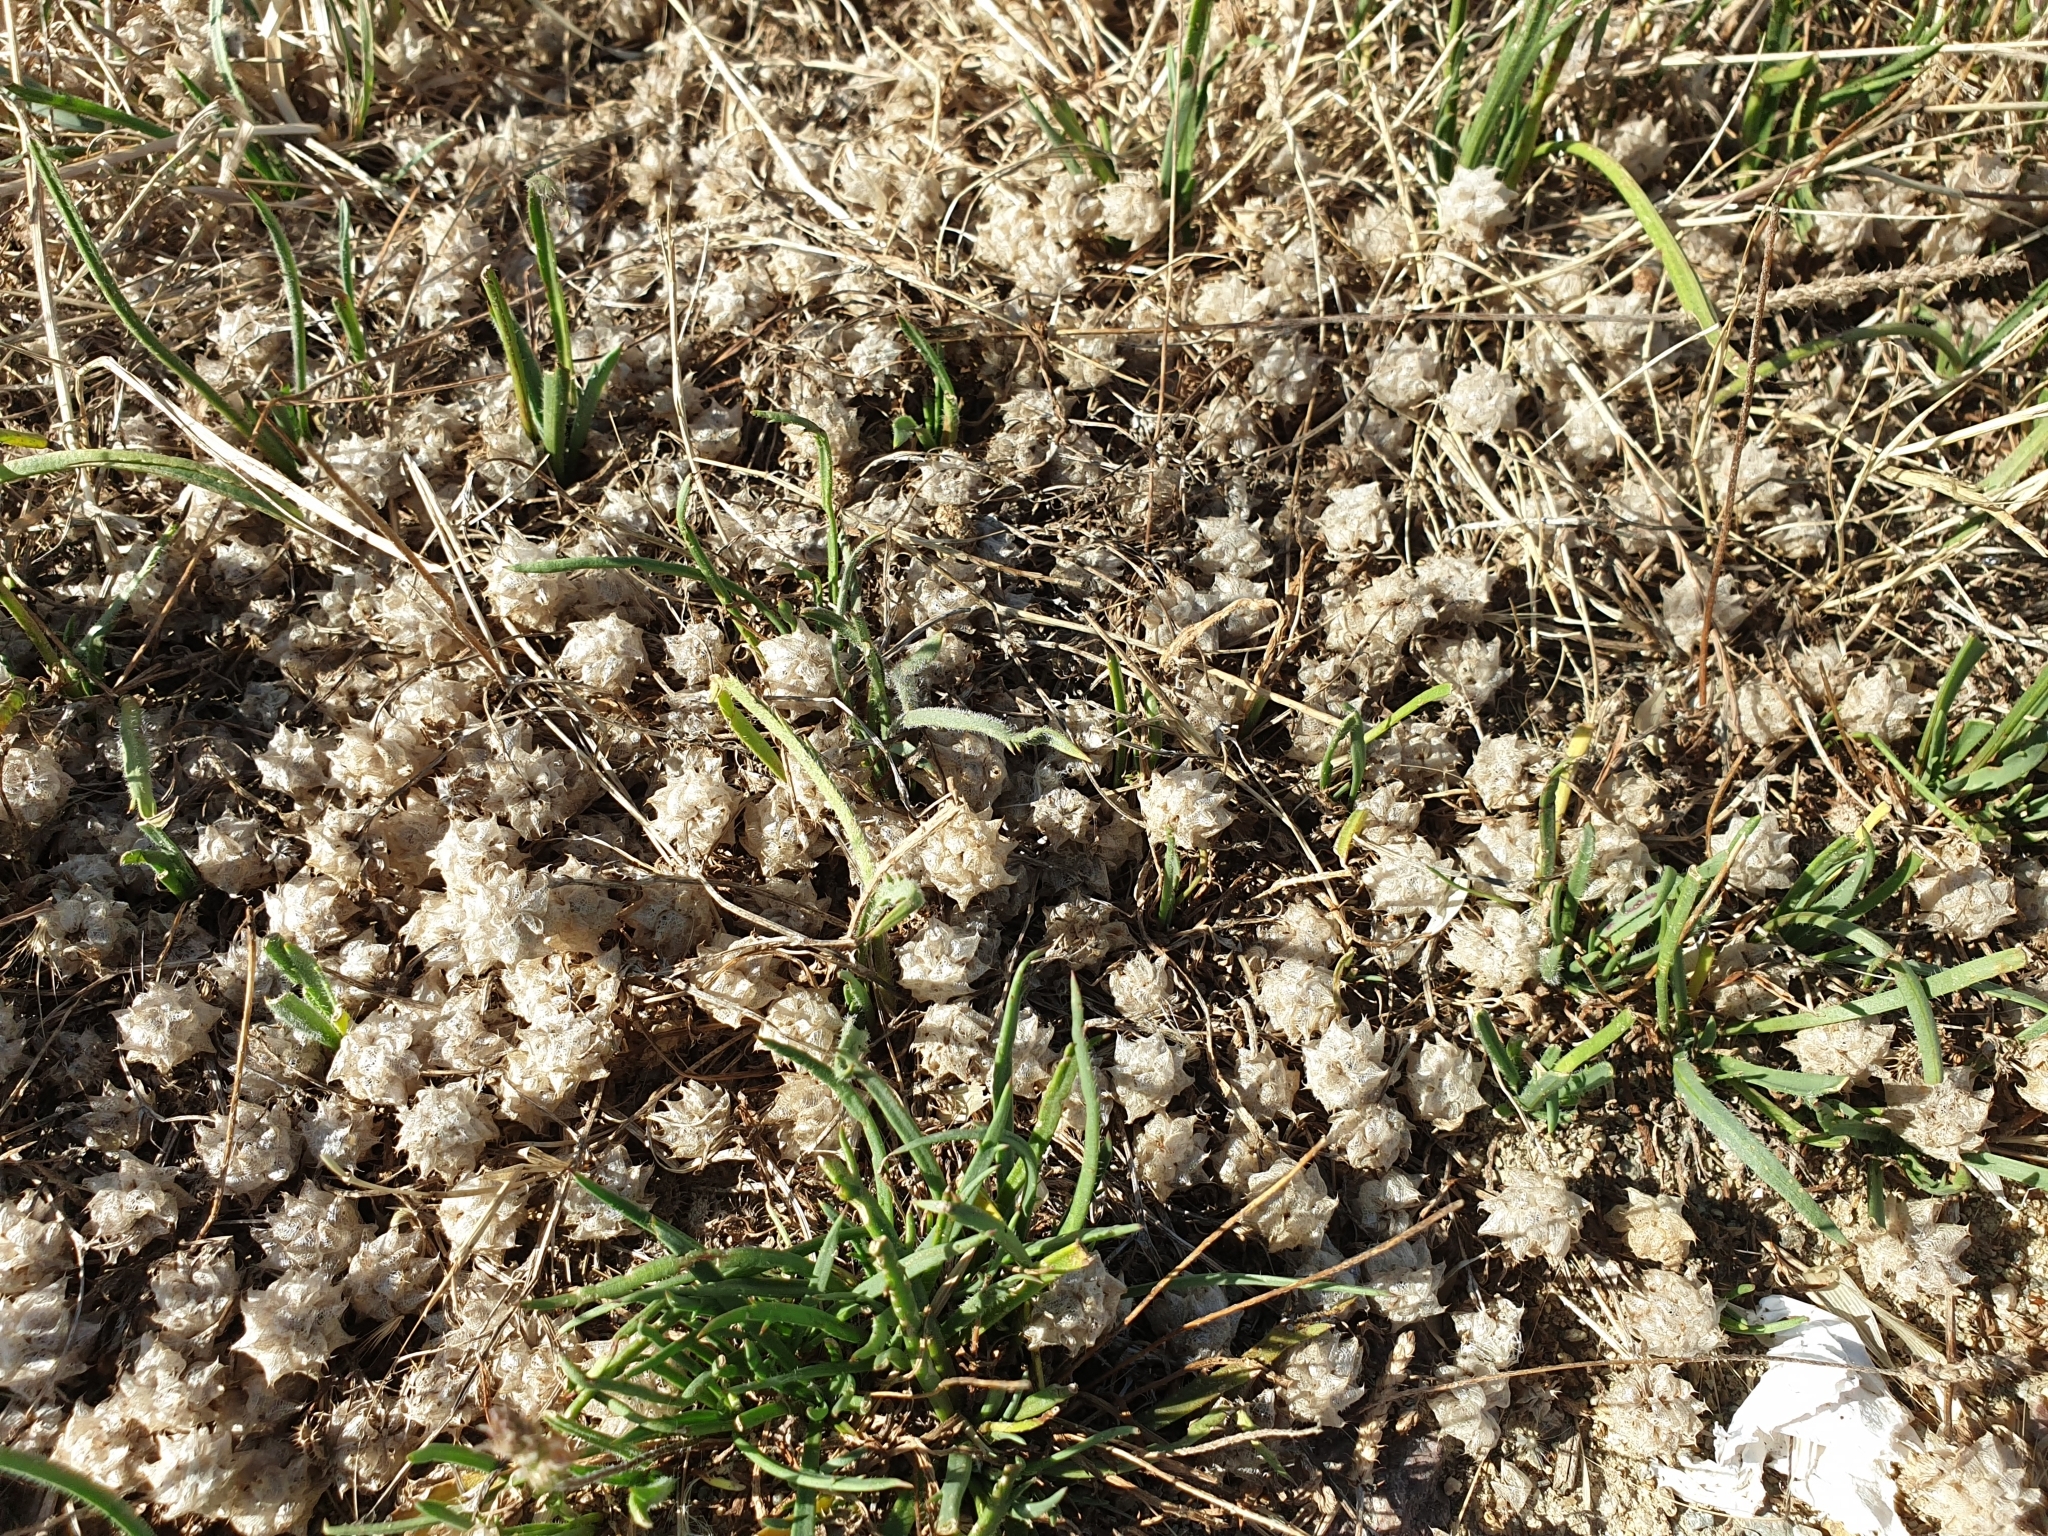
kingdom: Plantae
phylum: Tracheophyta
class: Magnoliopsida
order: Fabales
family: Fabaceae
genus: Trifolium
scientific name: Trifolium resupinatum
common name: Reversed clover
